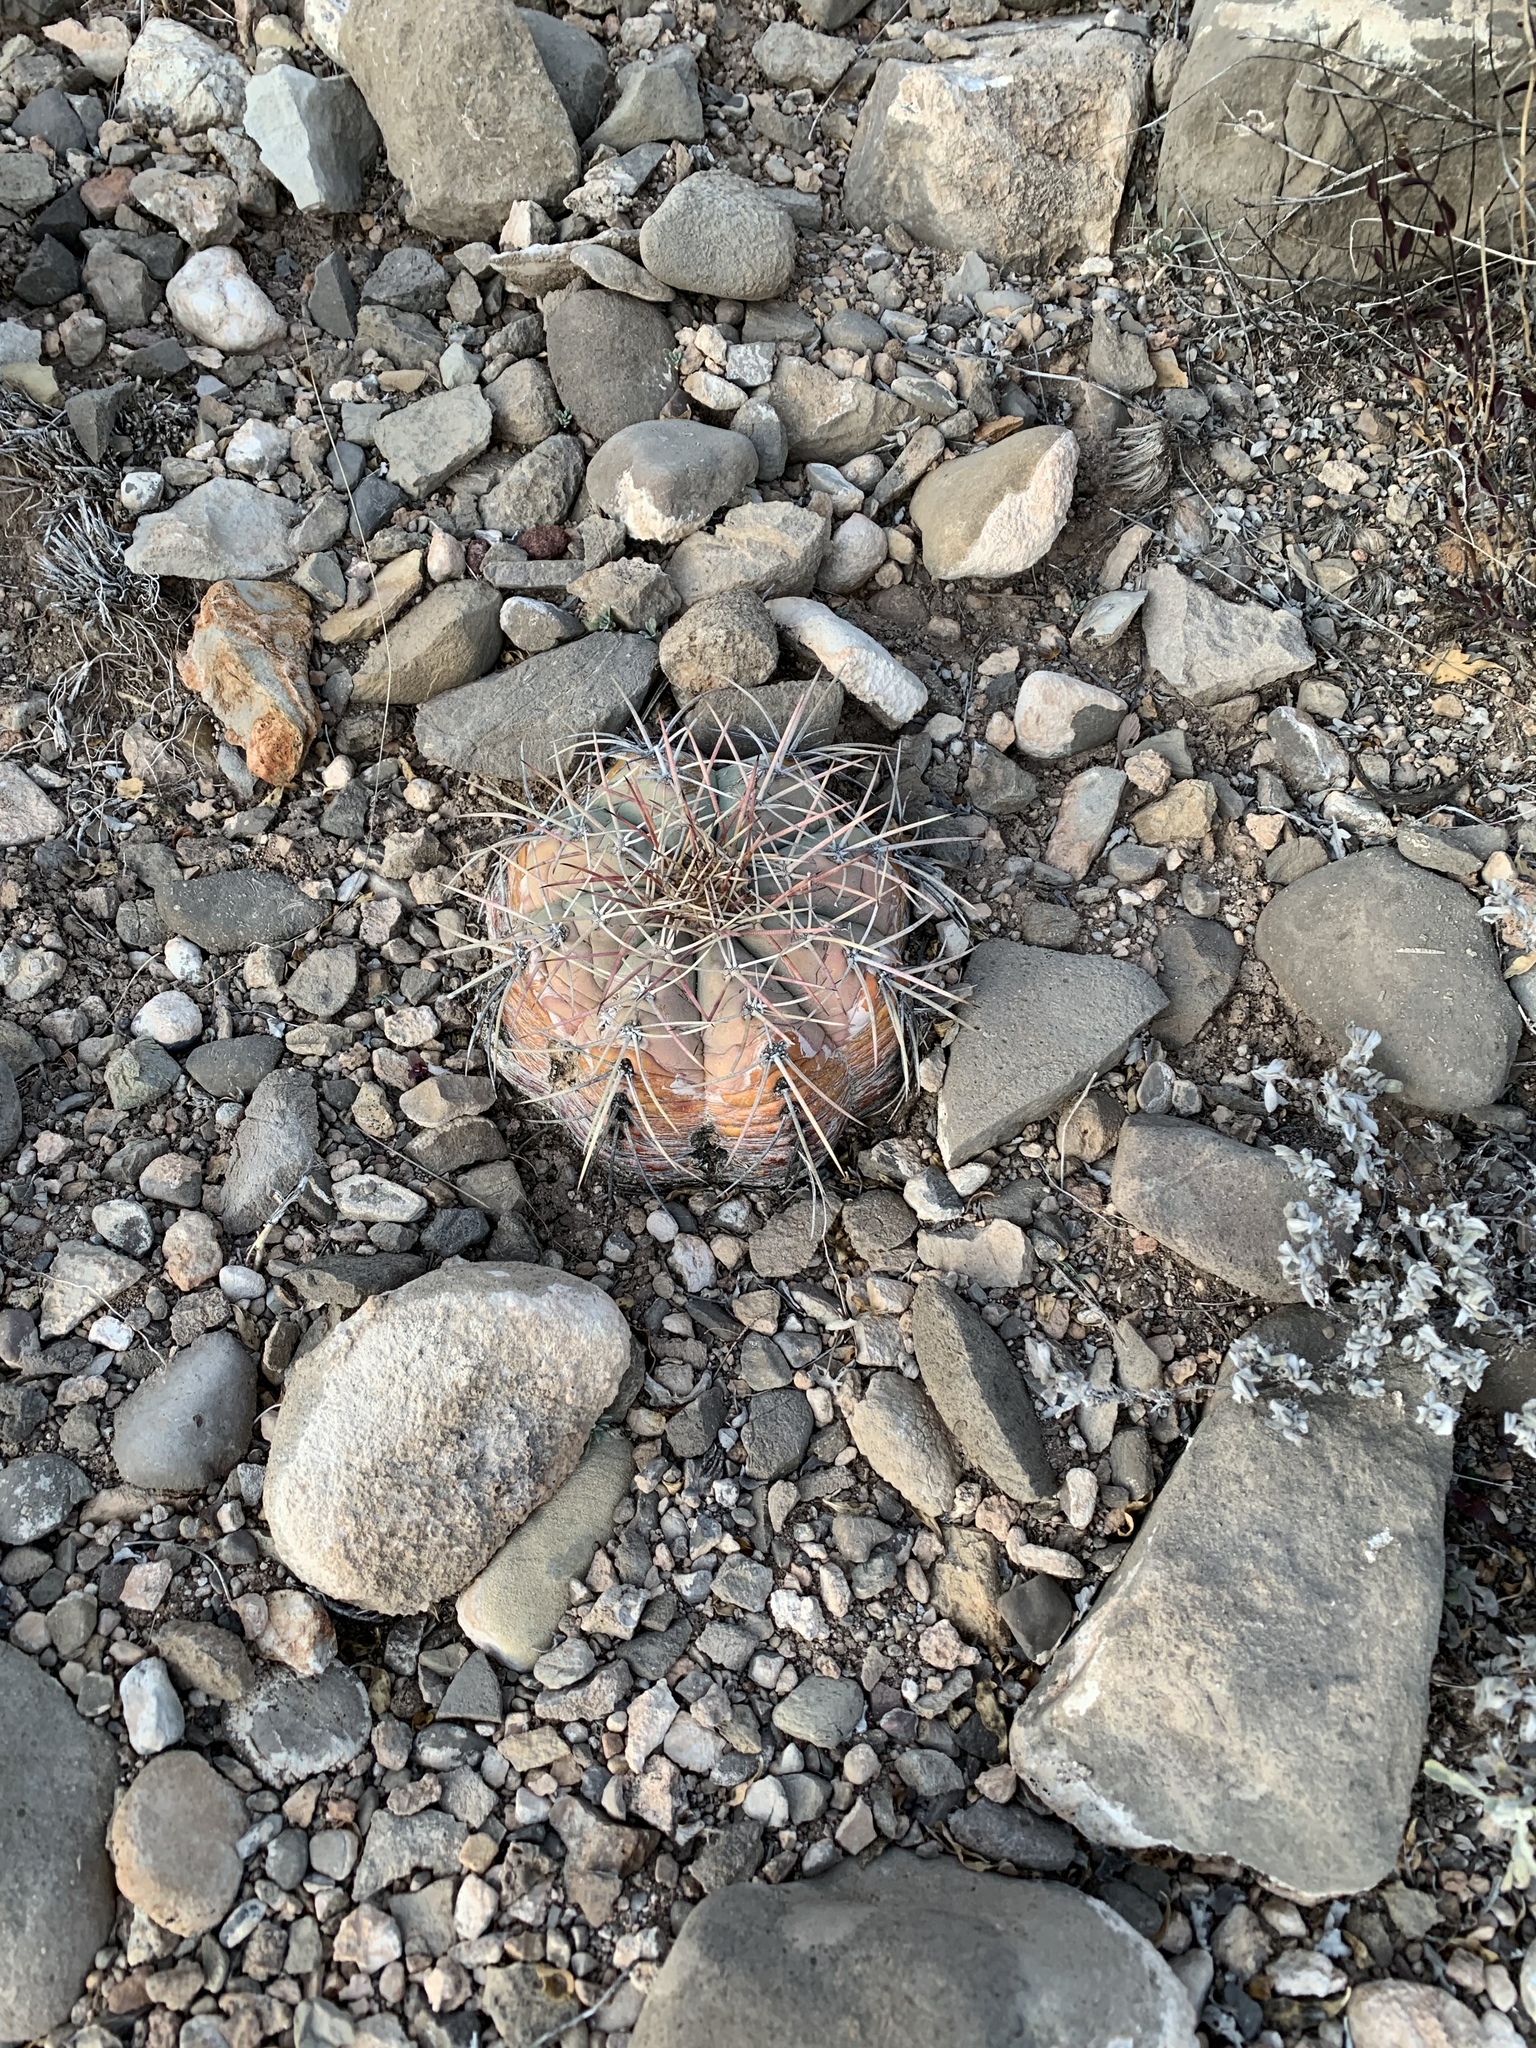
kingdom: Plantae
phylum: Tracheophyta
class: Magnoliopsida
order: Caryophyllales
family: Cactaceae
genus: Echinocactus
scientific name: Echinocactus horizonthalonius
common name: Devilshead
